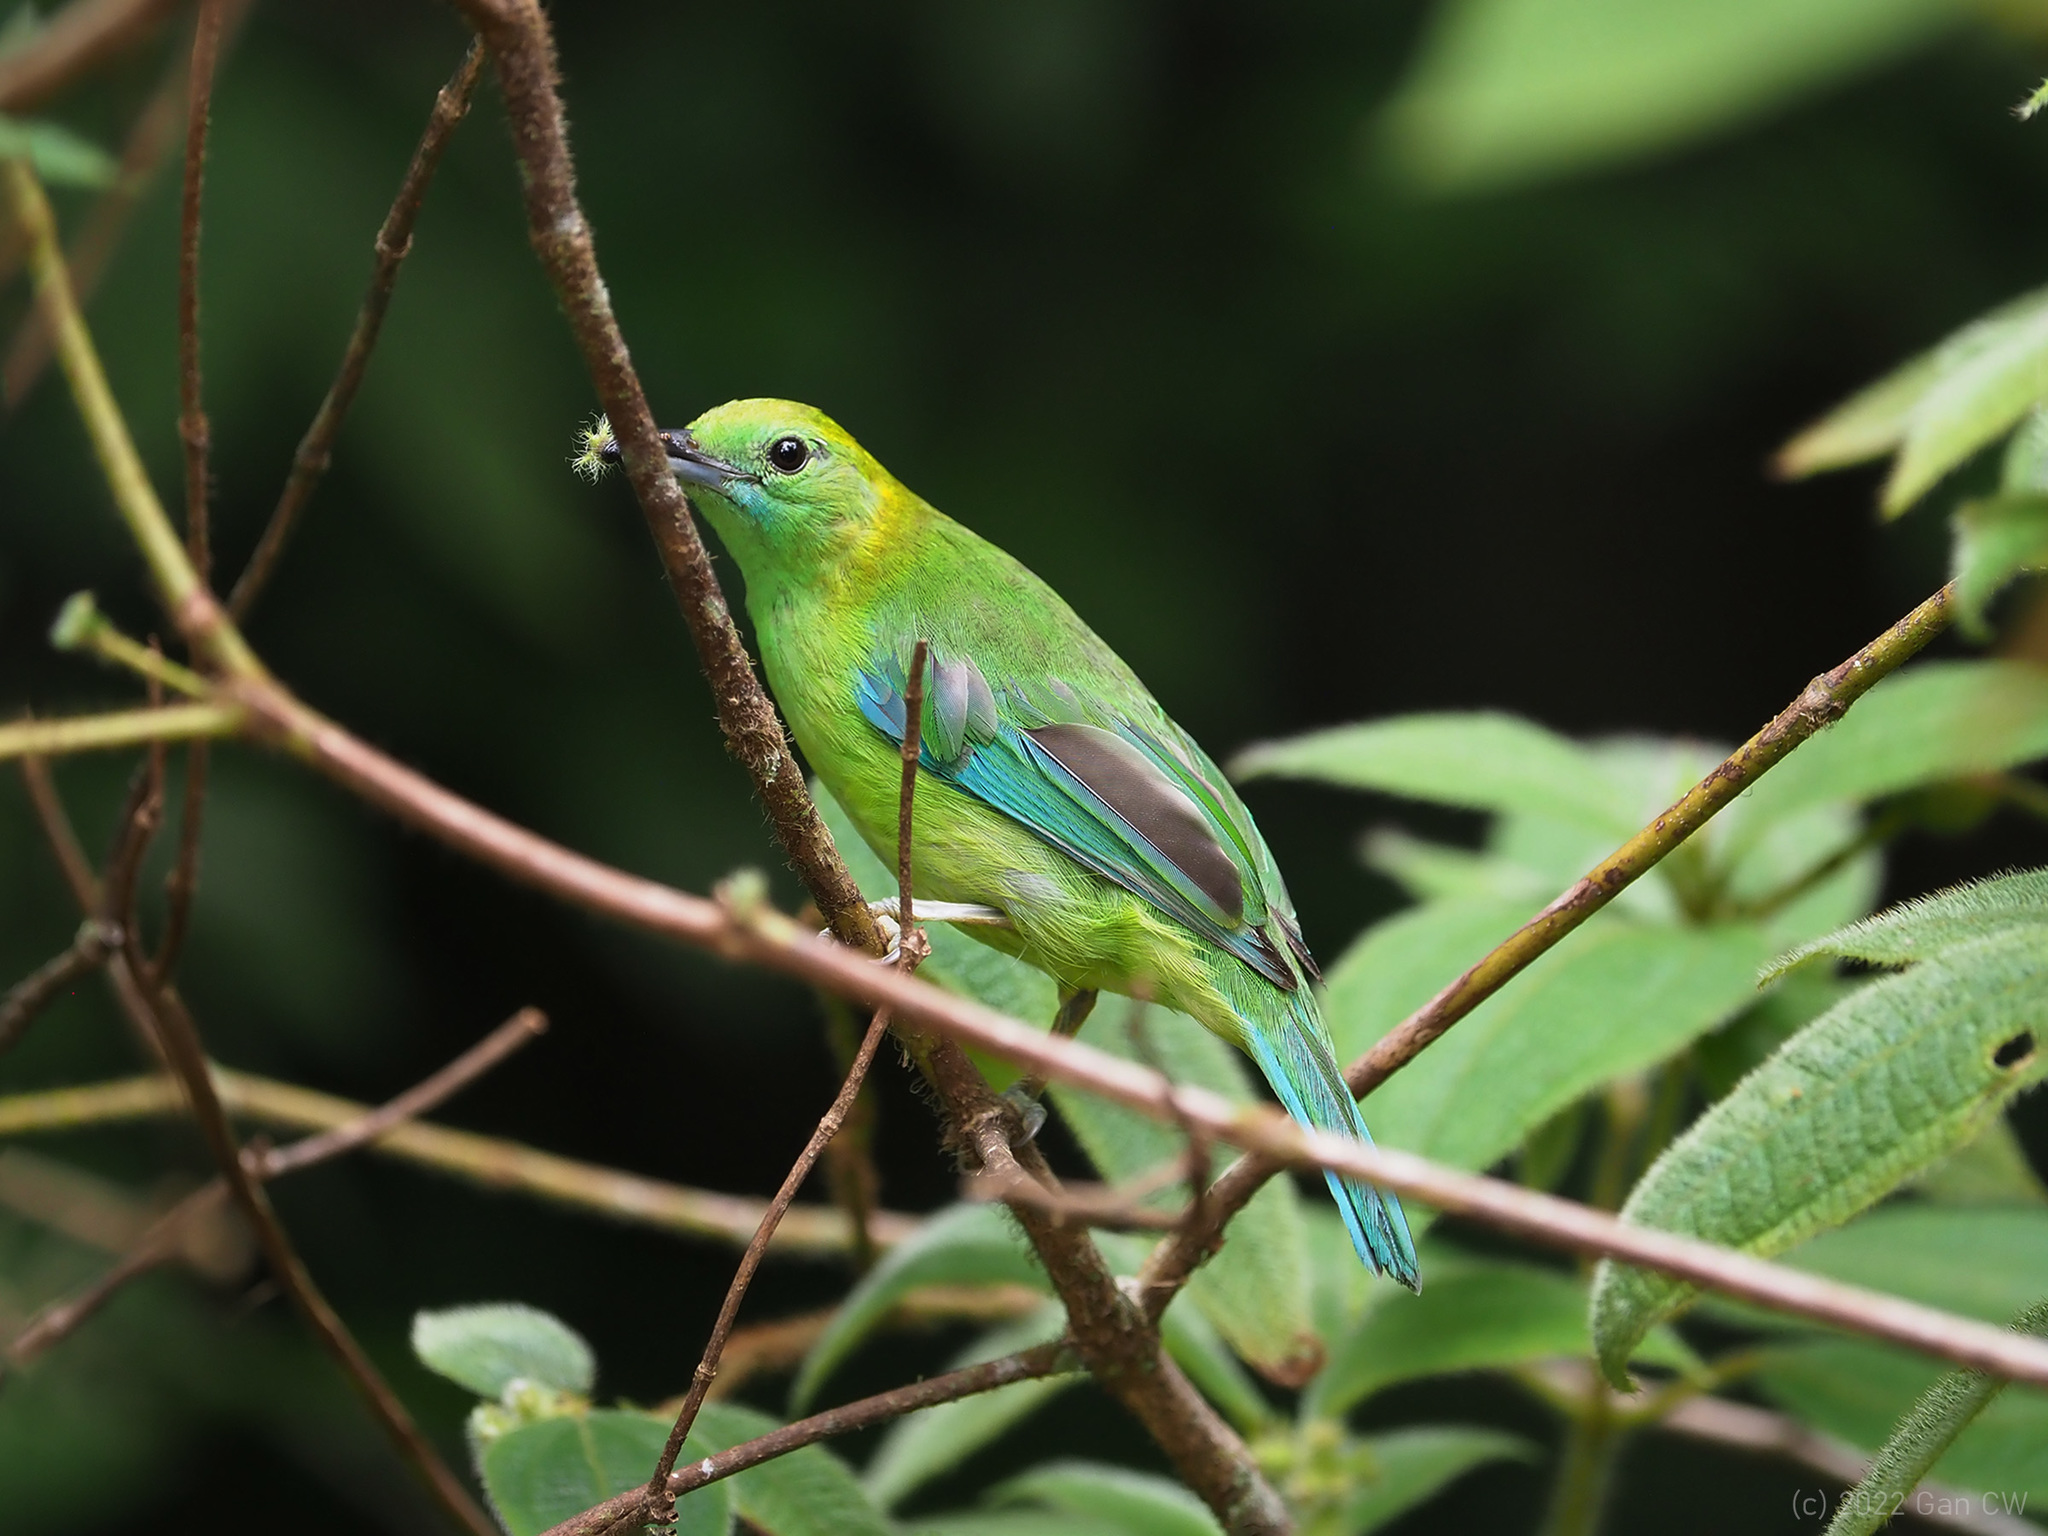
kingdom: Animalia
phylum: Chordata
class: Aves
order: Passeriformes
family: Chloropseidae
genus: Chloropsis
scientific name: Chloropsis moluccensis
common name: Blue-winged leafbird
